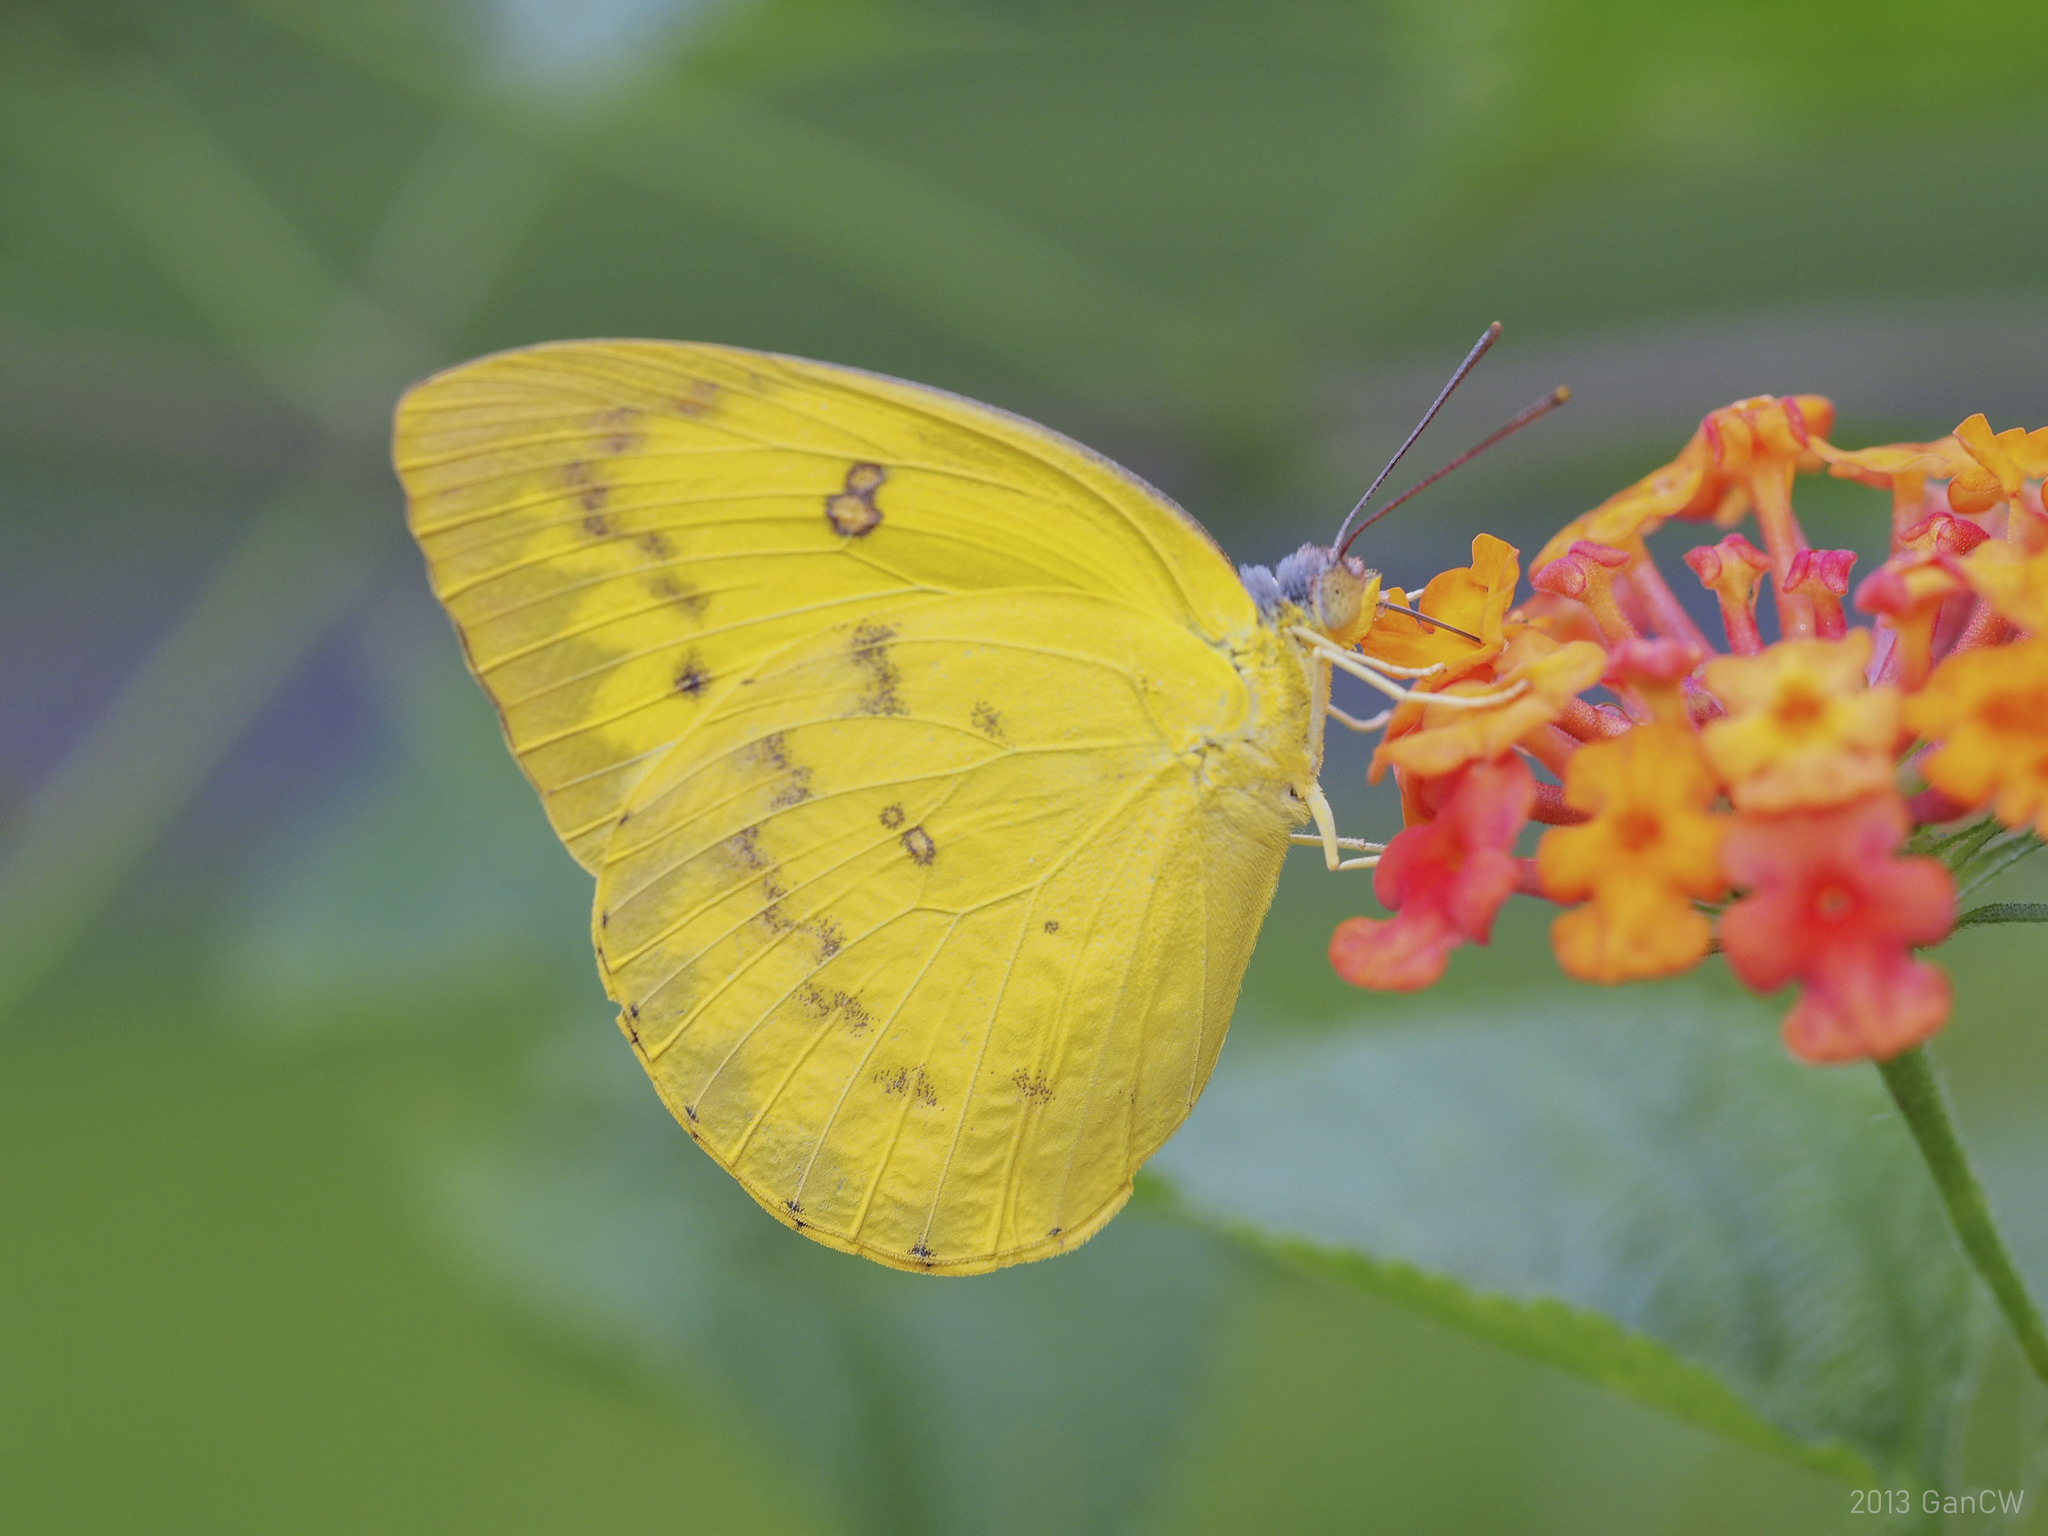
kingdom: Animalia
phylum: Arthropoda
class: Insecta
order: Lepidoptera
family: Pieridae
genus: Catopsilia
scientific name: Catopsilia scylla
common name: Orange emigrant
